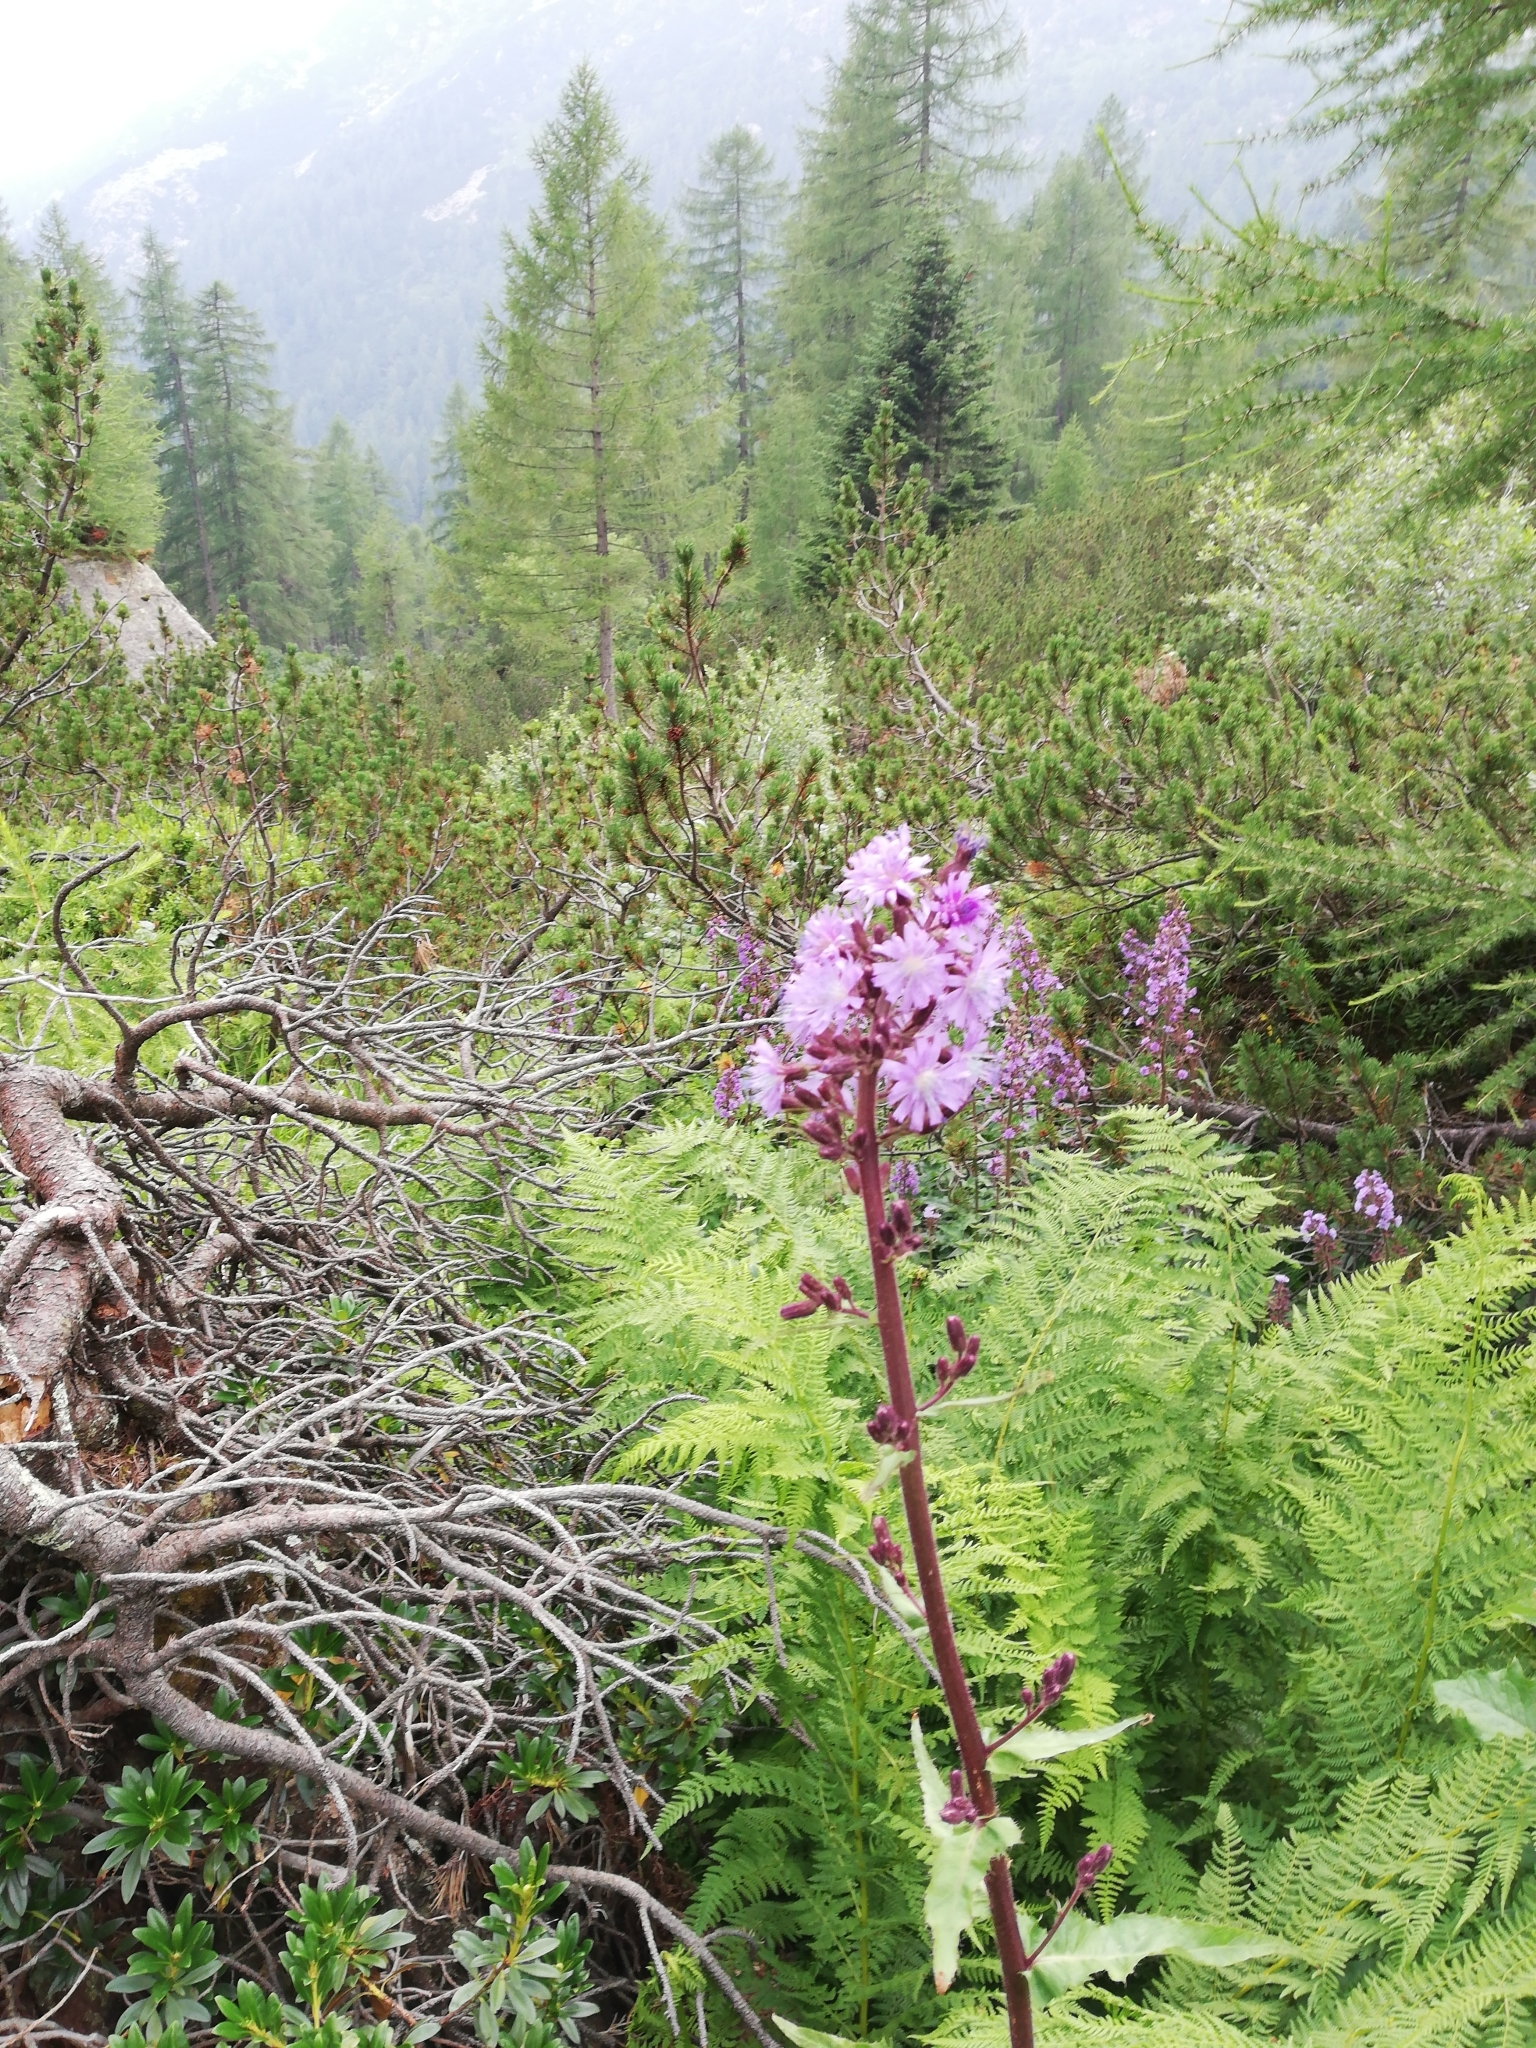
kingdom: Plantae
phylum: Tracheophyta
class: Magnoliopsida
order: Asterales
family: Asteraceae
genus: Cicerbita
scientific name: Cicerbita alpina
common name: Alpine blue-sow-thistle
